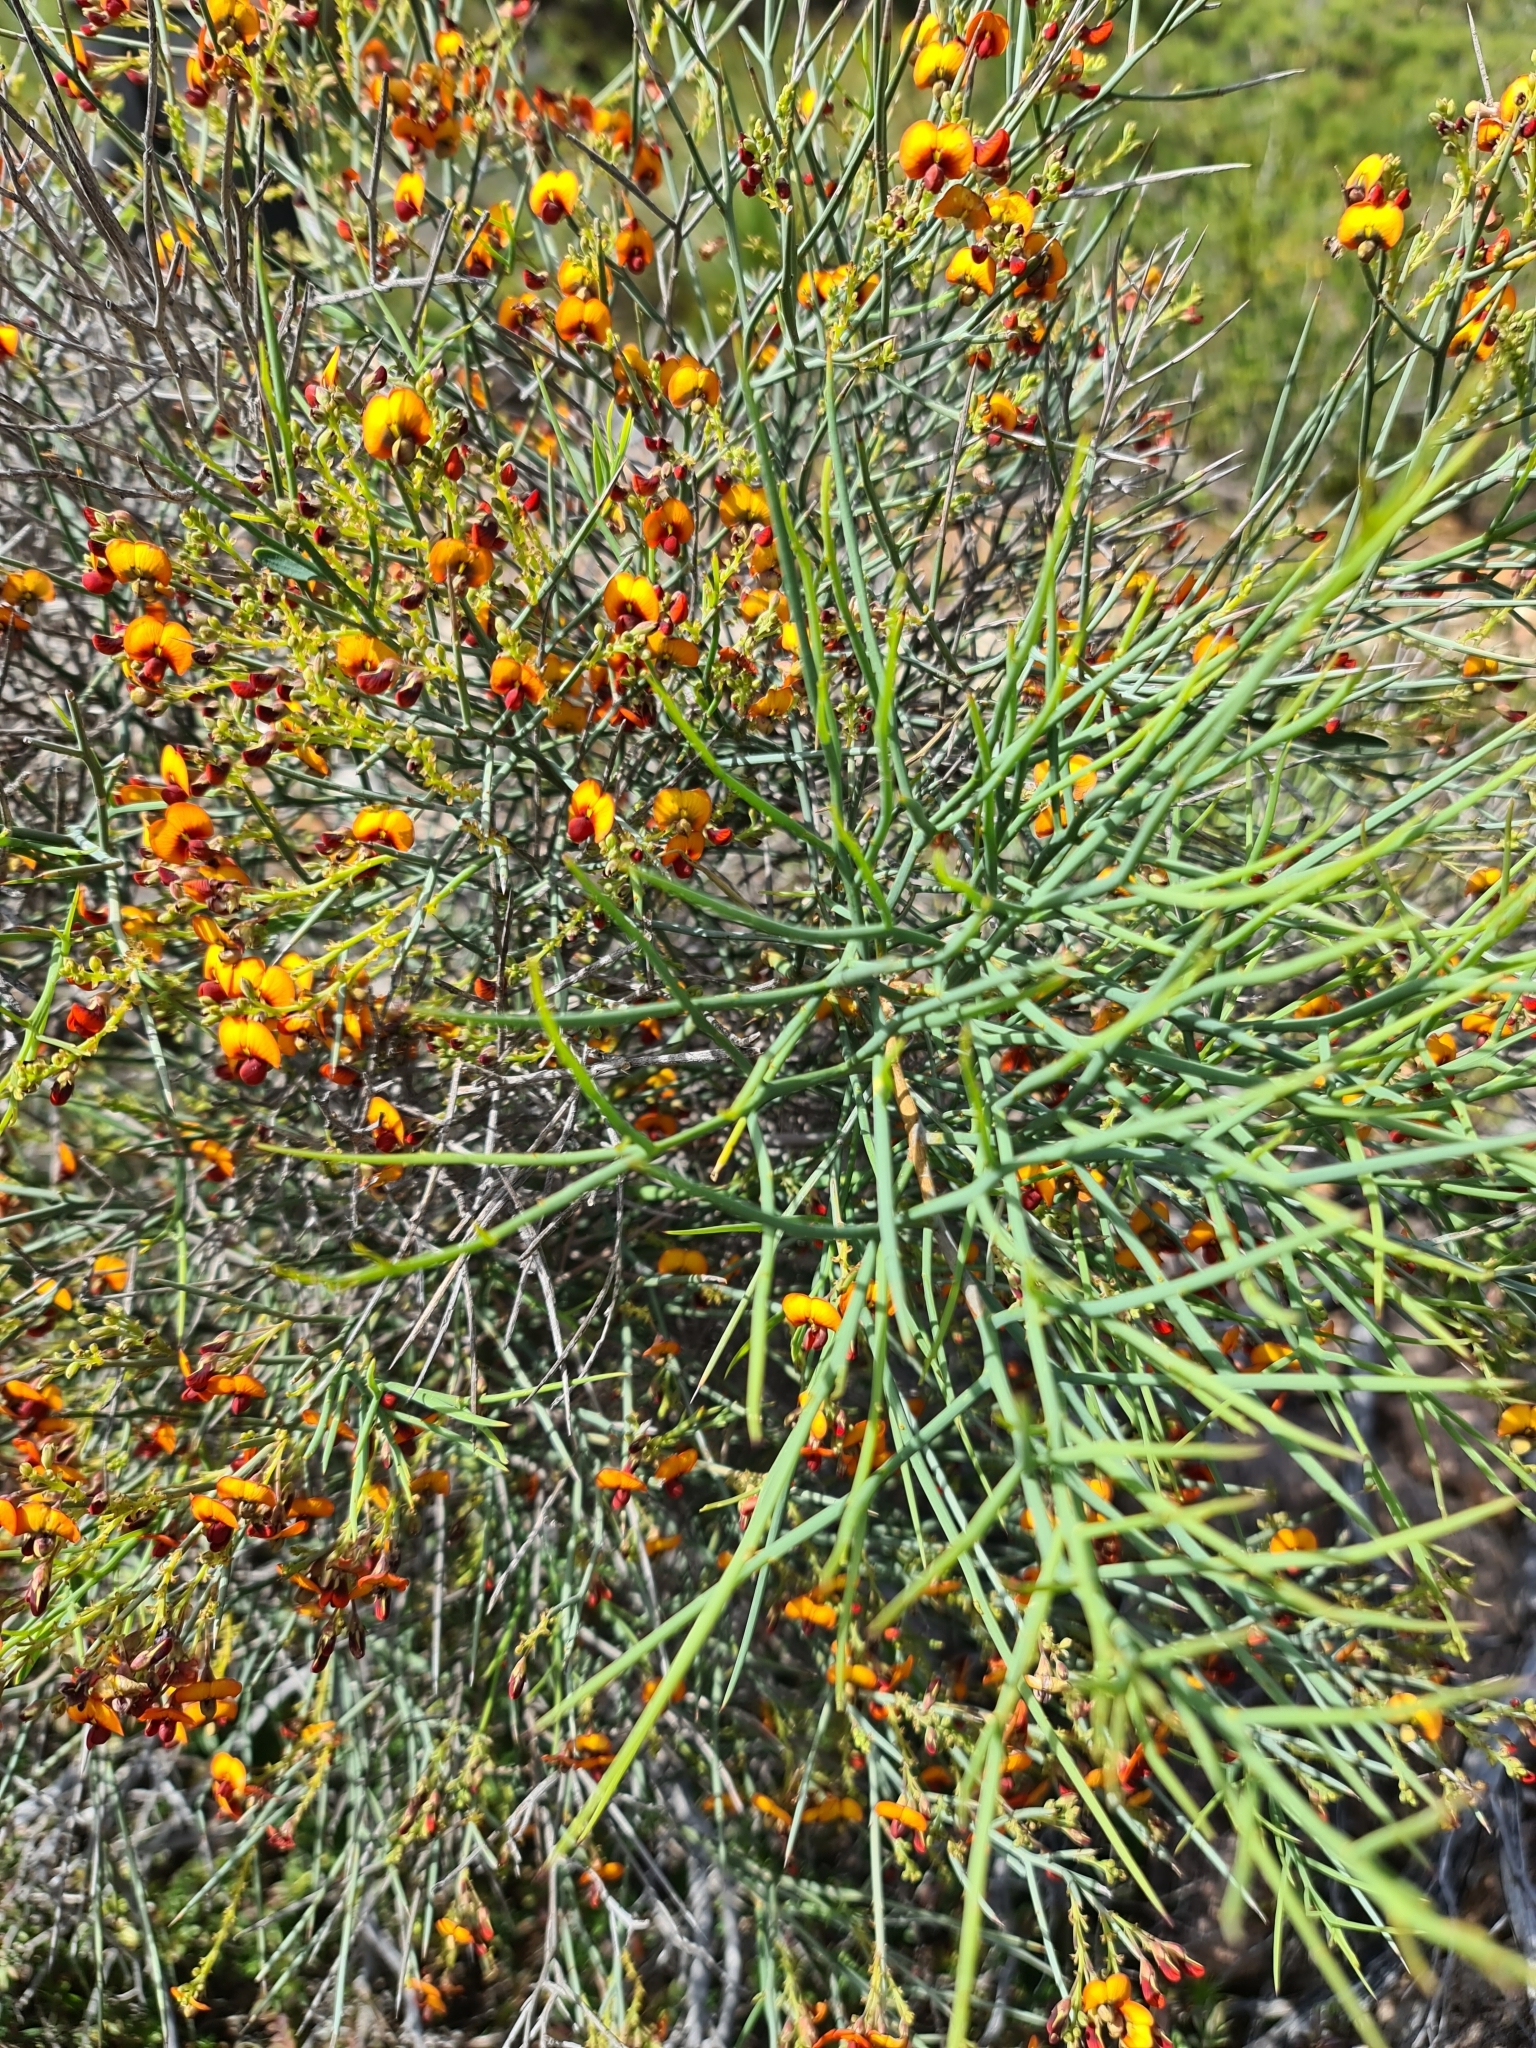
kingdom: Plantae
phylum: Tracheophyta
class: Magnoliopsida
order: Fabales
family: Fabaceae
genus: Daviesia
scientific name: Daviesia horrida
